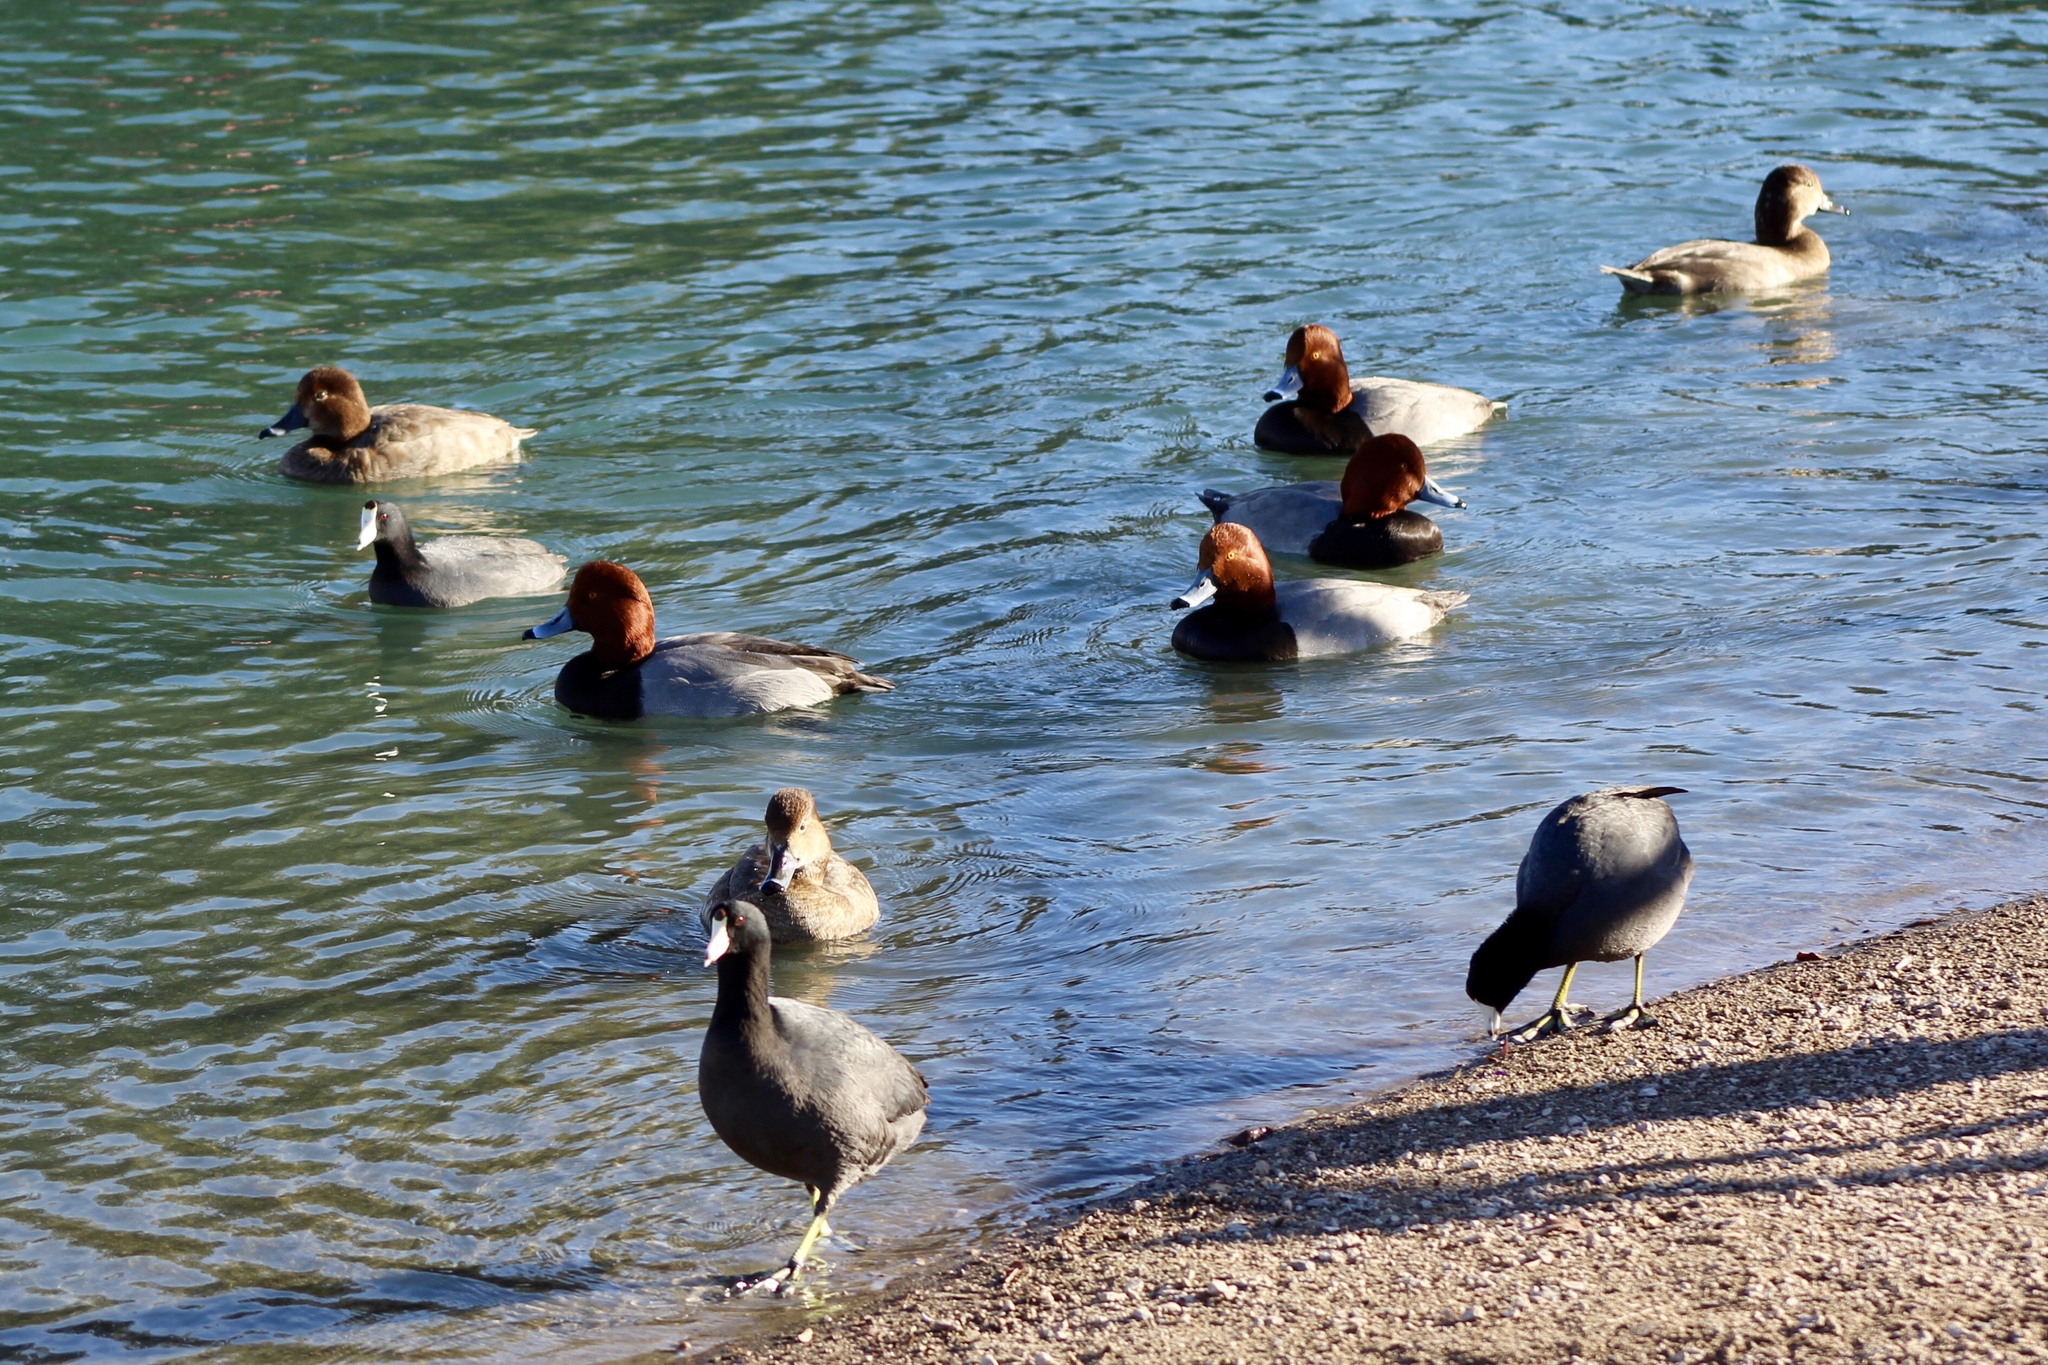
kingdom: Animalia
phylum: Chordata
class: Aves
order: Anseriformes
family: Anatidae
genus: Aythya
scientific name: Aythya americana
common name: Redhead
